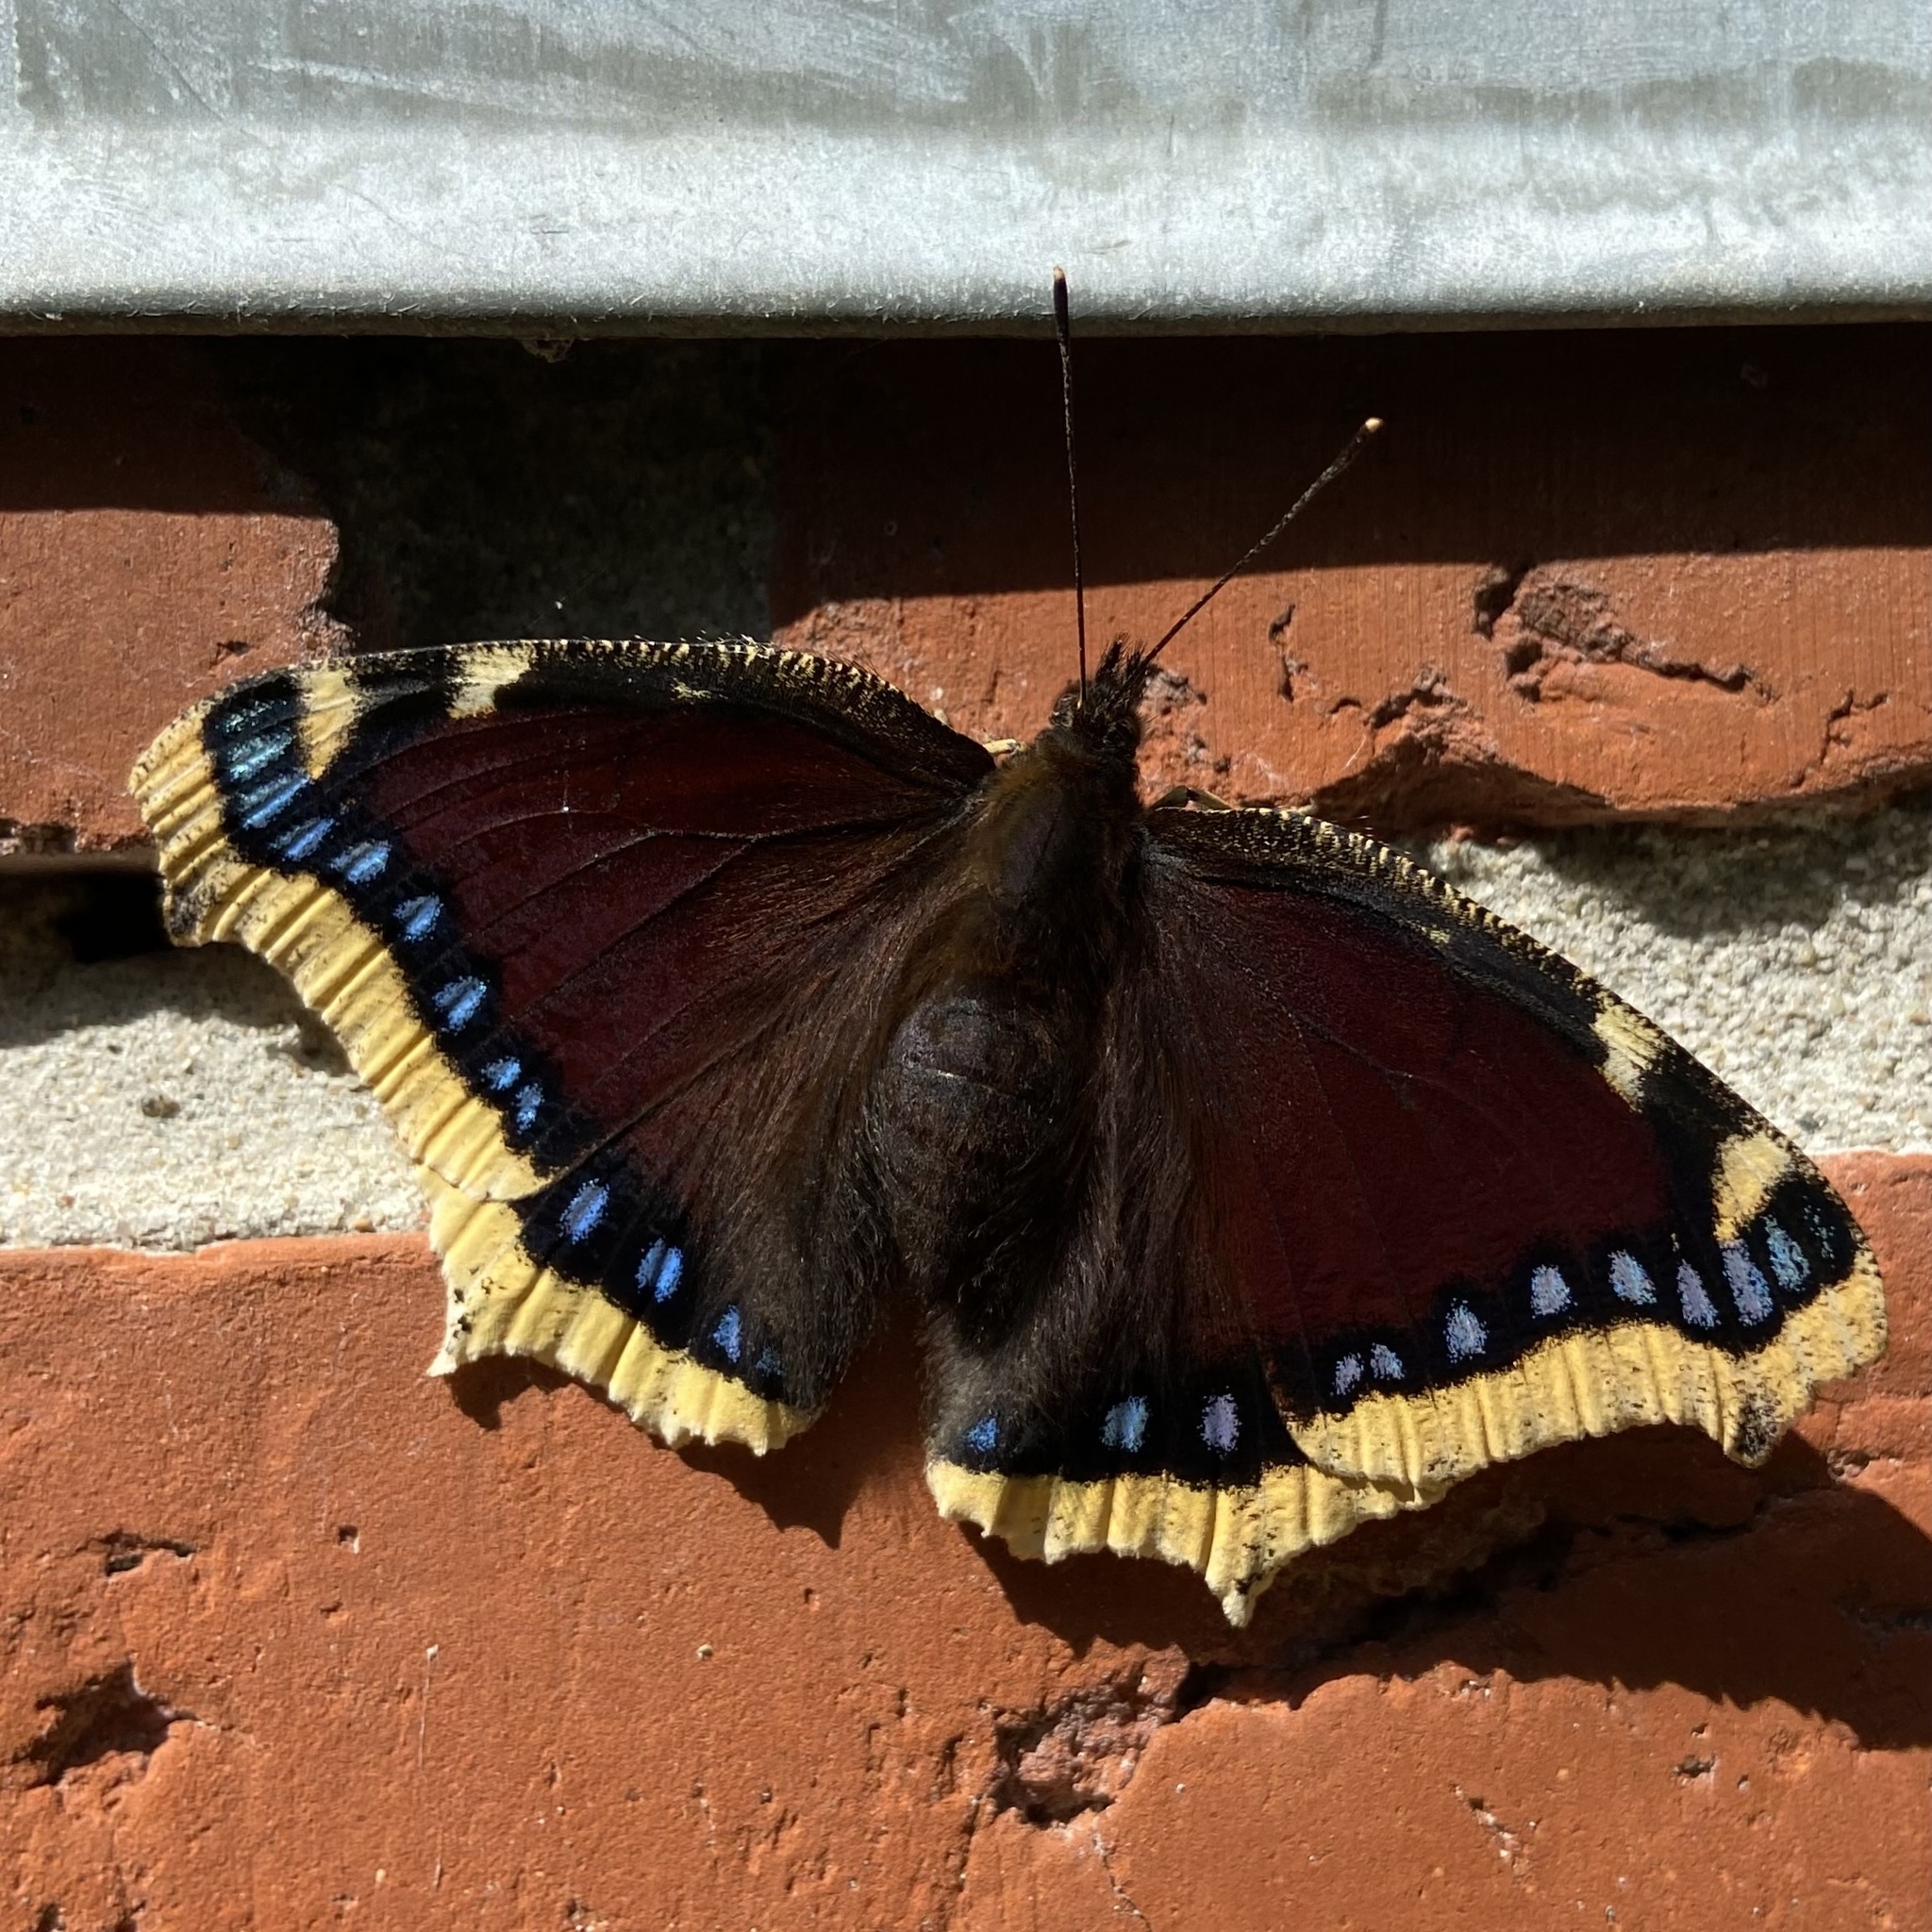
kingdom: Animalia
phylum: Arthropoda
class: Insecta
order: Lepidoptera
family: Nymphalidae
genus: Nymphalis
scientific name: Nymphalis antiopa
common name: Camberwell beauty
